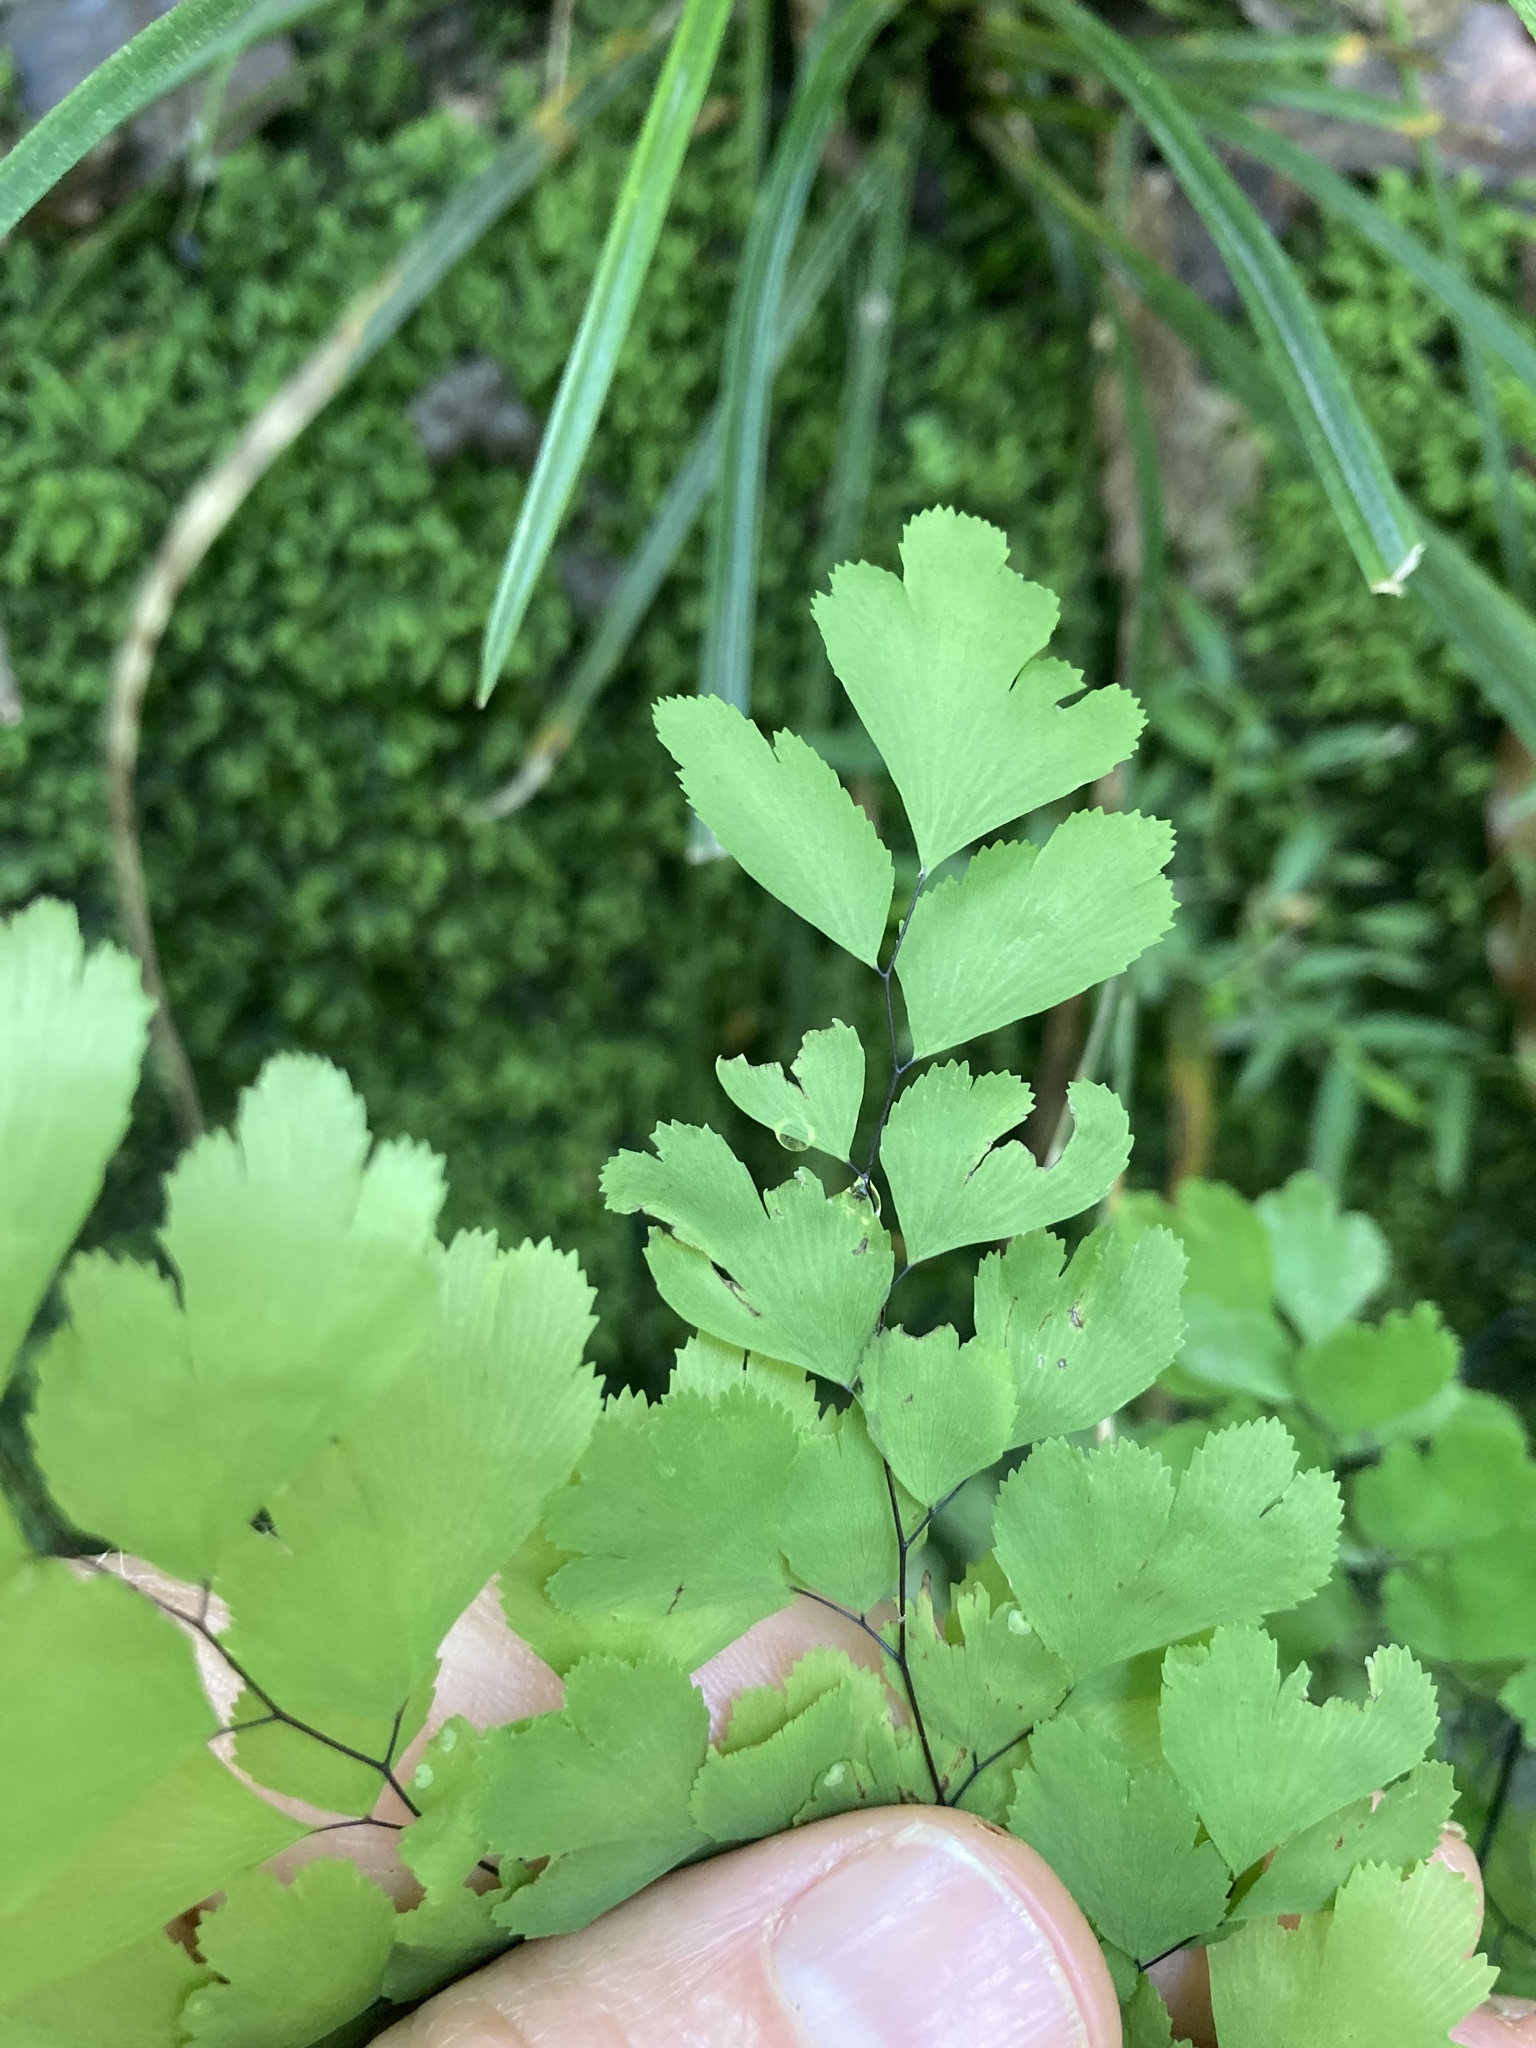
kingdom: Plantae
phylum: Tracheophyta
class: Polypodiopsida
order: Polypodiales
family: Pteridaceae
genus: Adiantum
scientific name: Adiantum raddianum
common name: Delta maidenhair fern
